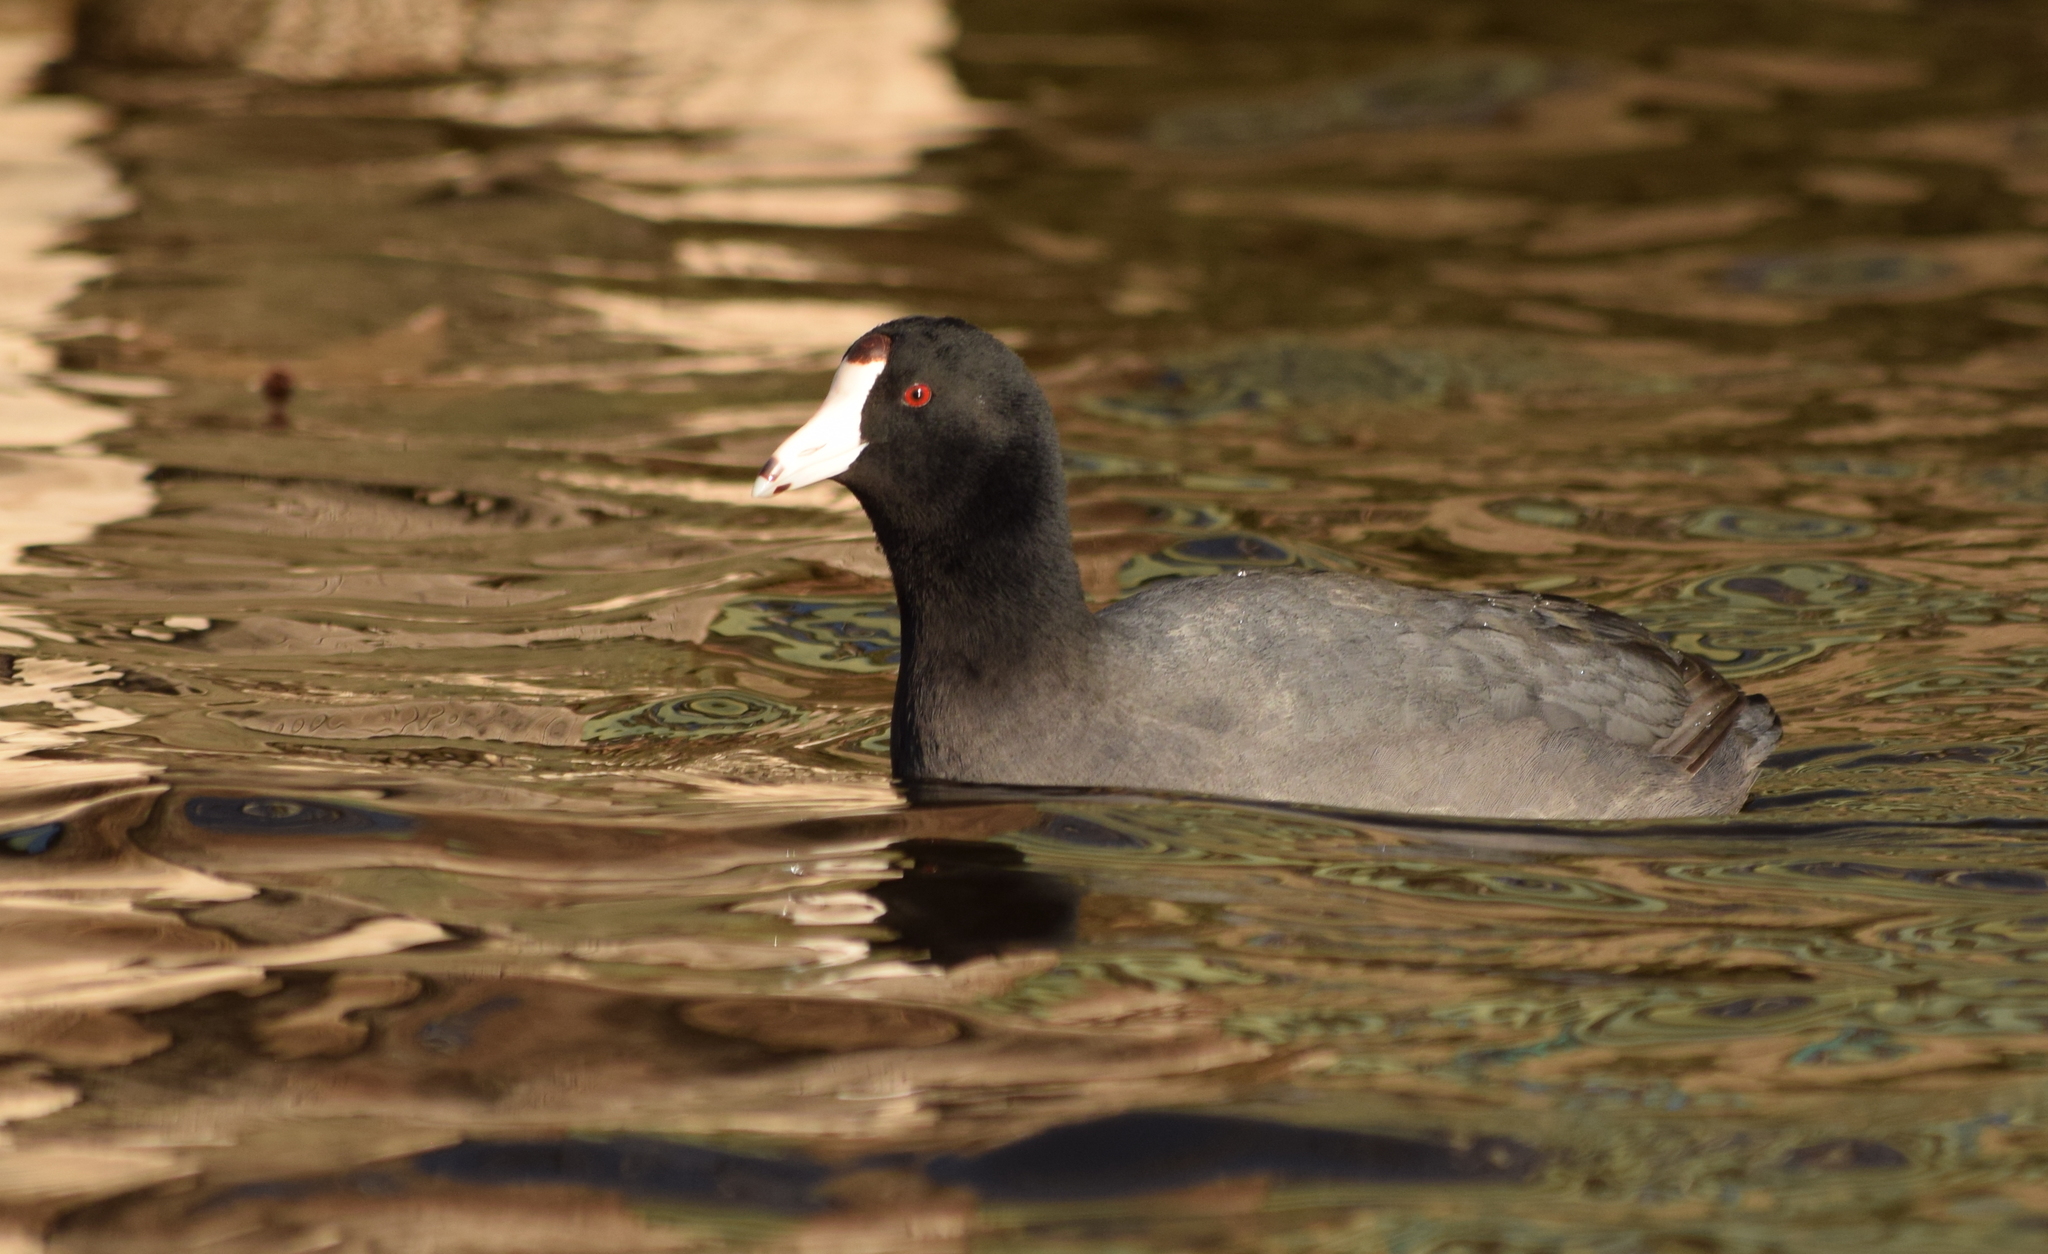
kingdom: Animalia
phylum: Chordata
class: Aves
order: Gruiformes
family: Rallidae
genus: Fulica
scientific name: Fulica americana
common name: American coot
